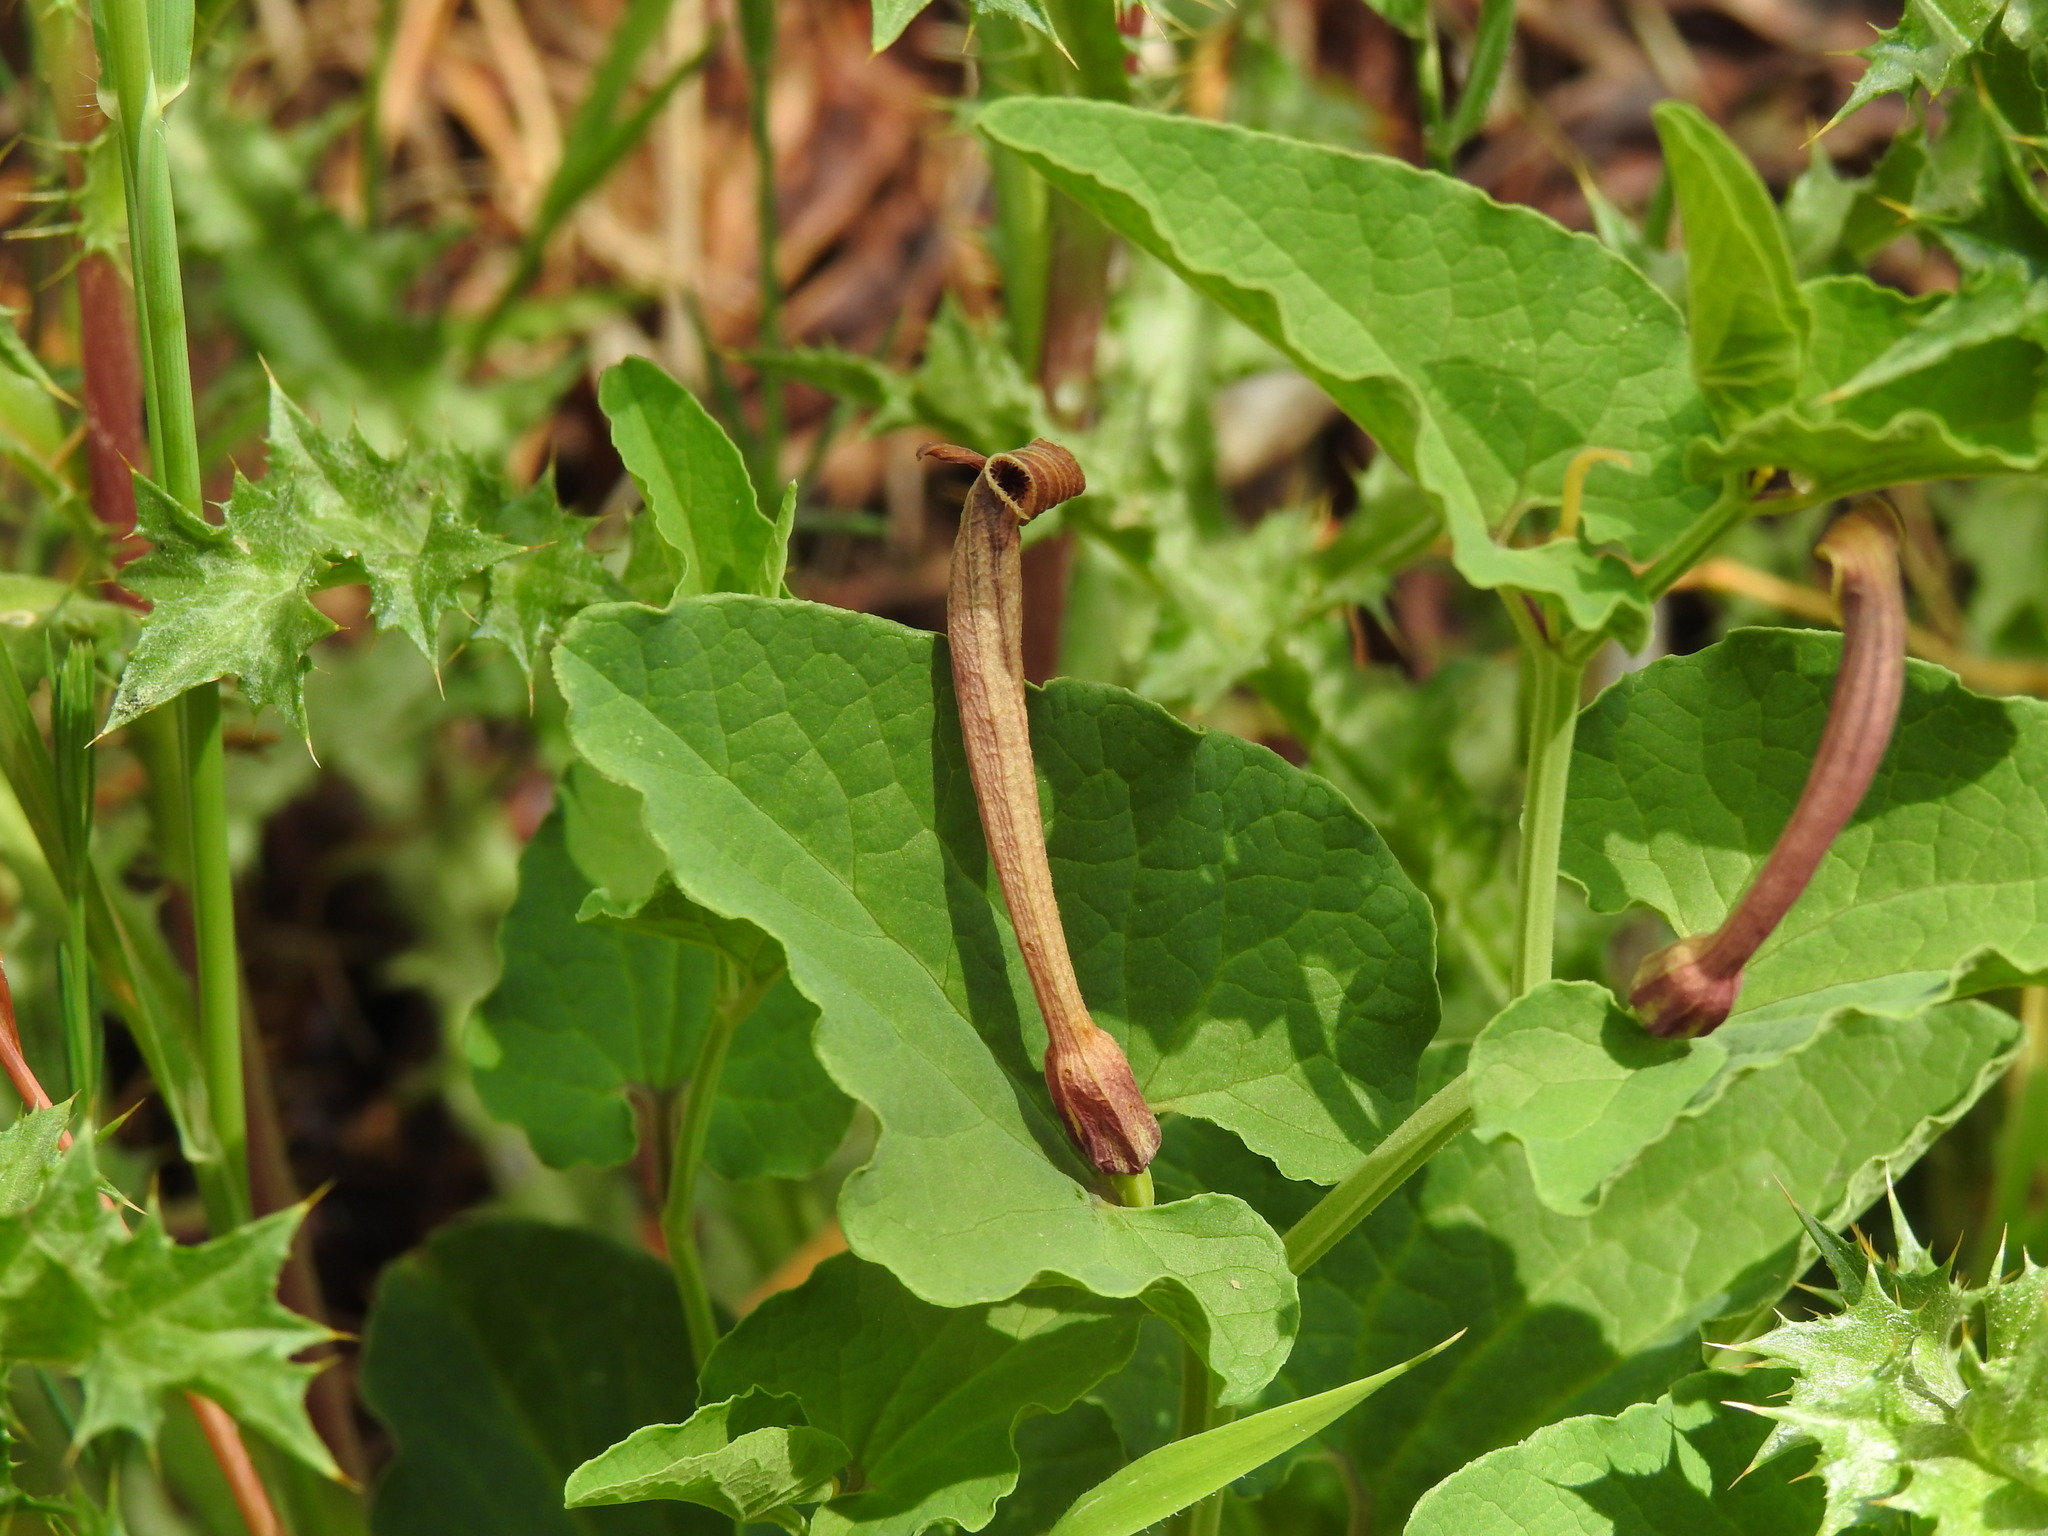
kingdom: Plantae
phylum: Tracheophyta
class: Magnoliopsida
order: Piperales
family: Aristolochiaceae
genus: Aristolochia
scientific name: Aristolochia paucinervis
